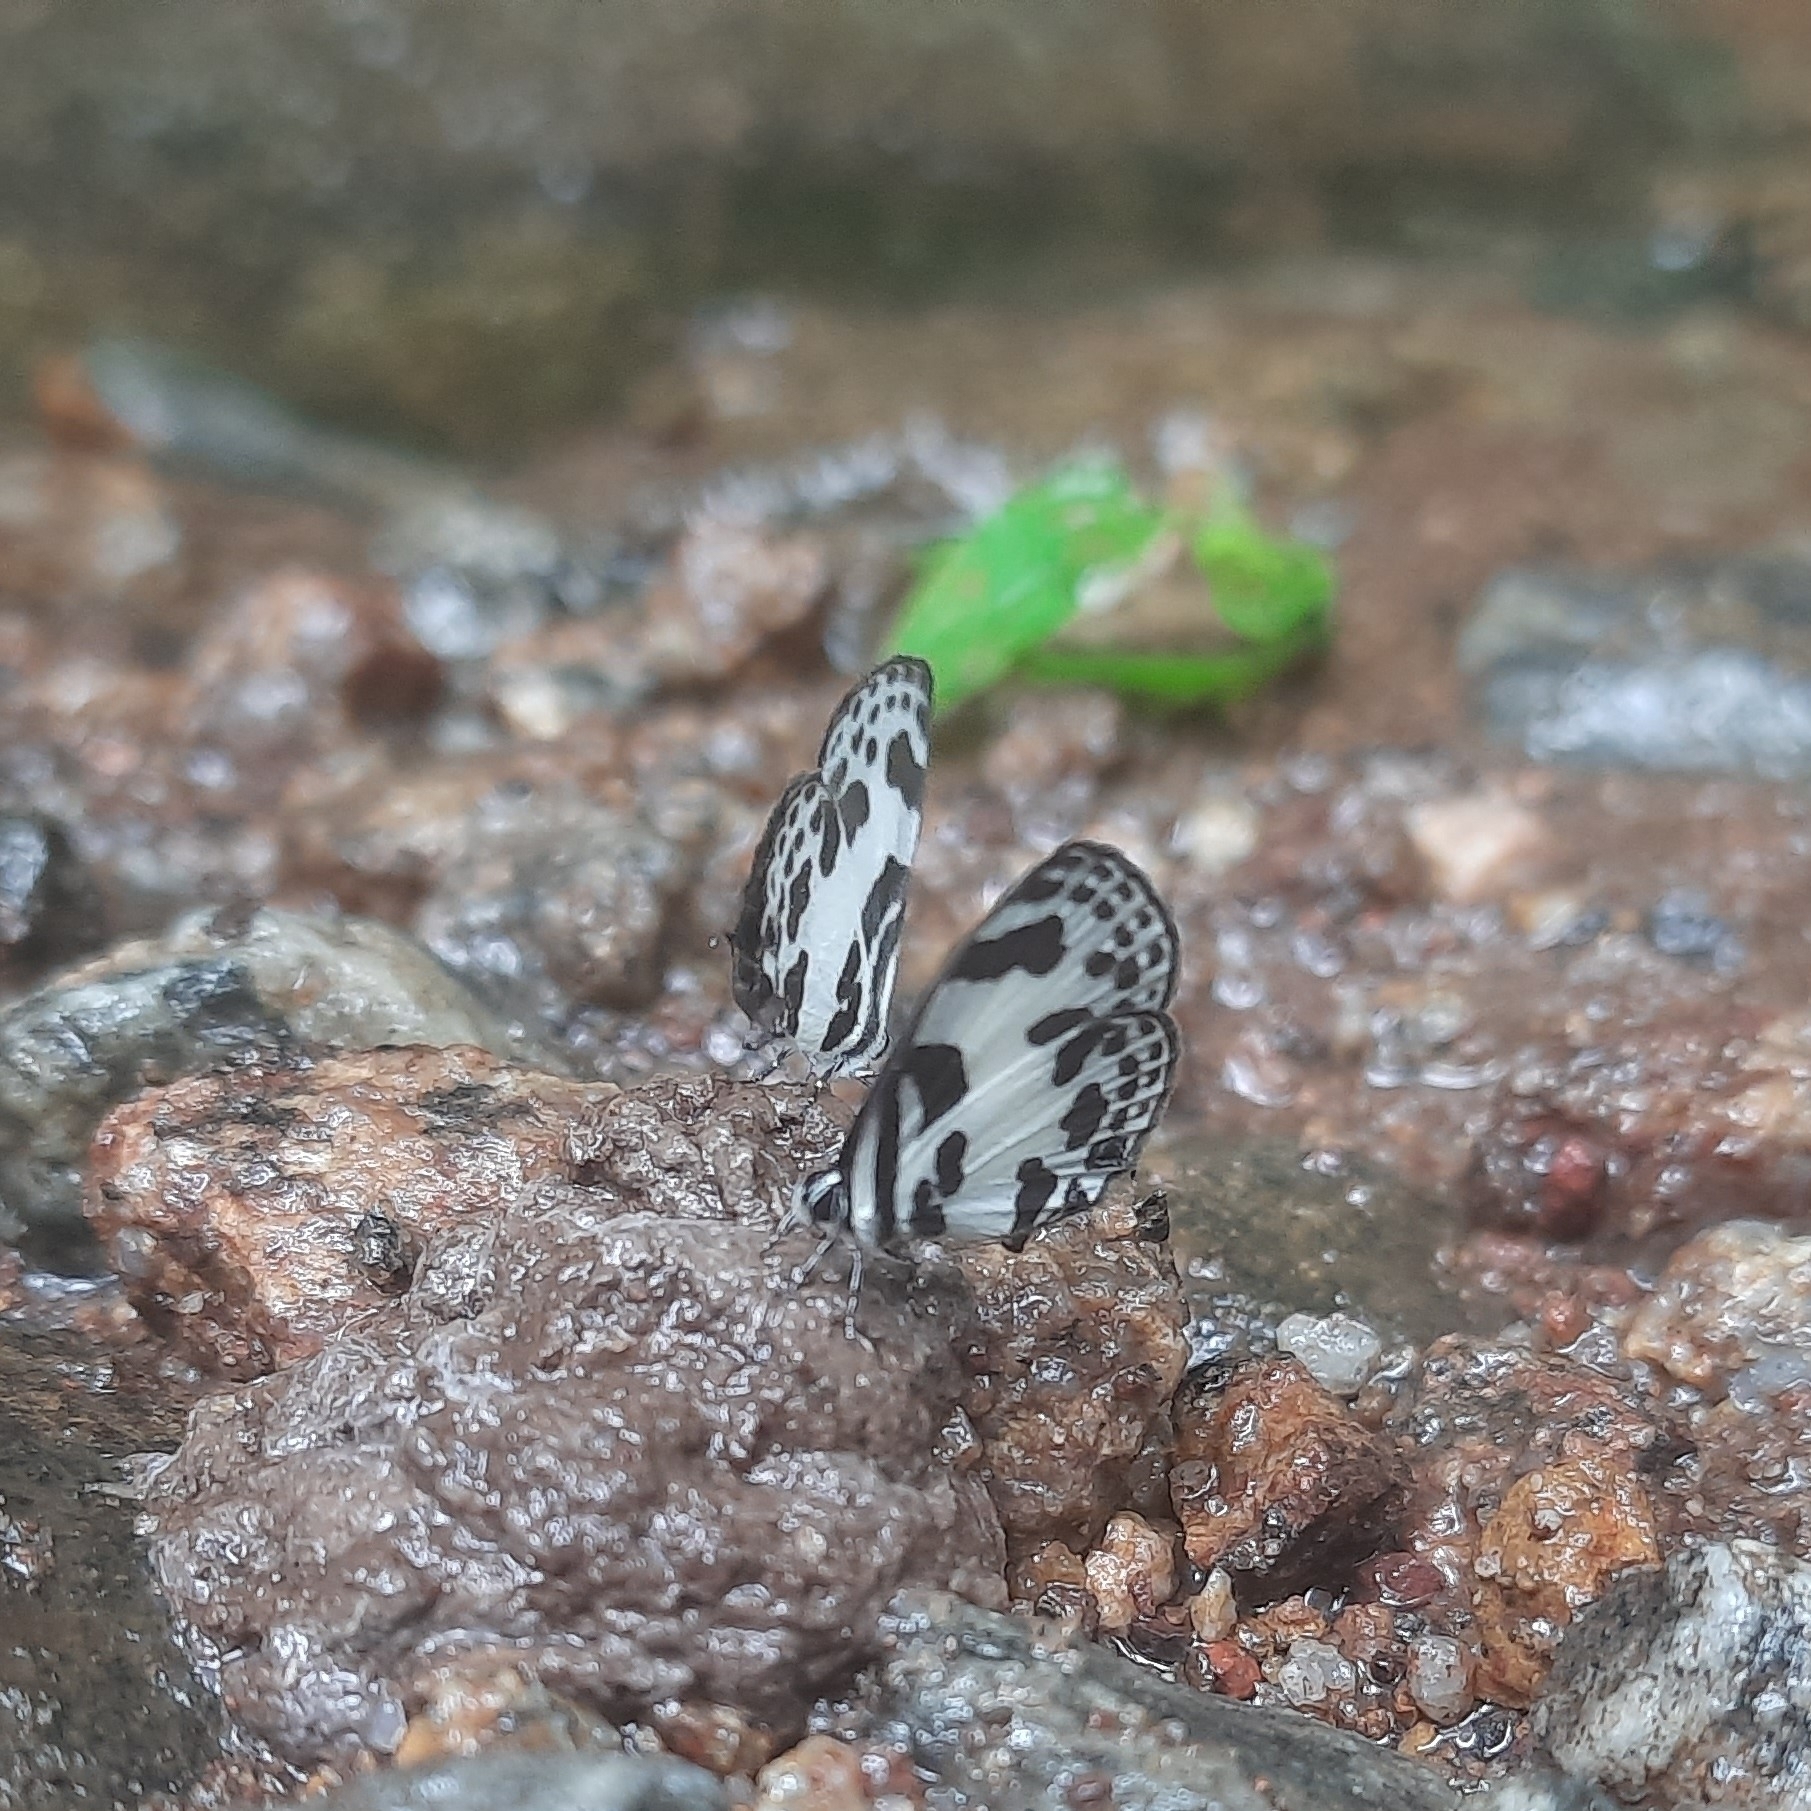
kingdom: Animalia
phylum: Arthropoda
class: Insecta
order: Lepidoptera
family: Lycaenidae
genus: Discolampa
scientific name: Discolampa ethion
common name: Banded blue pierrot
